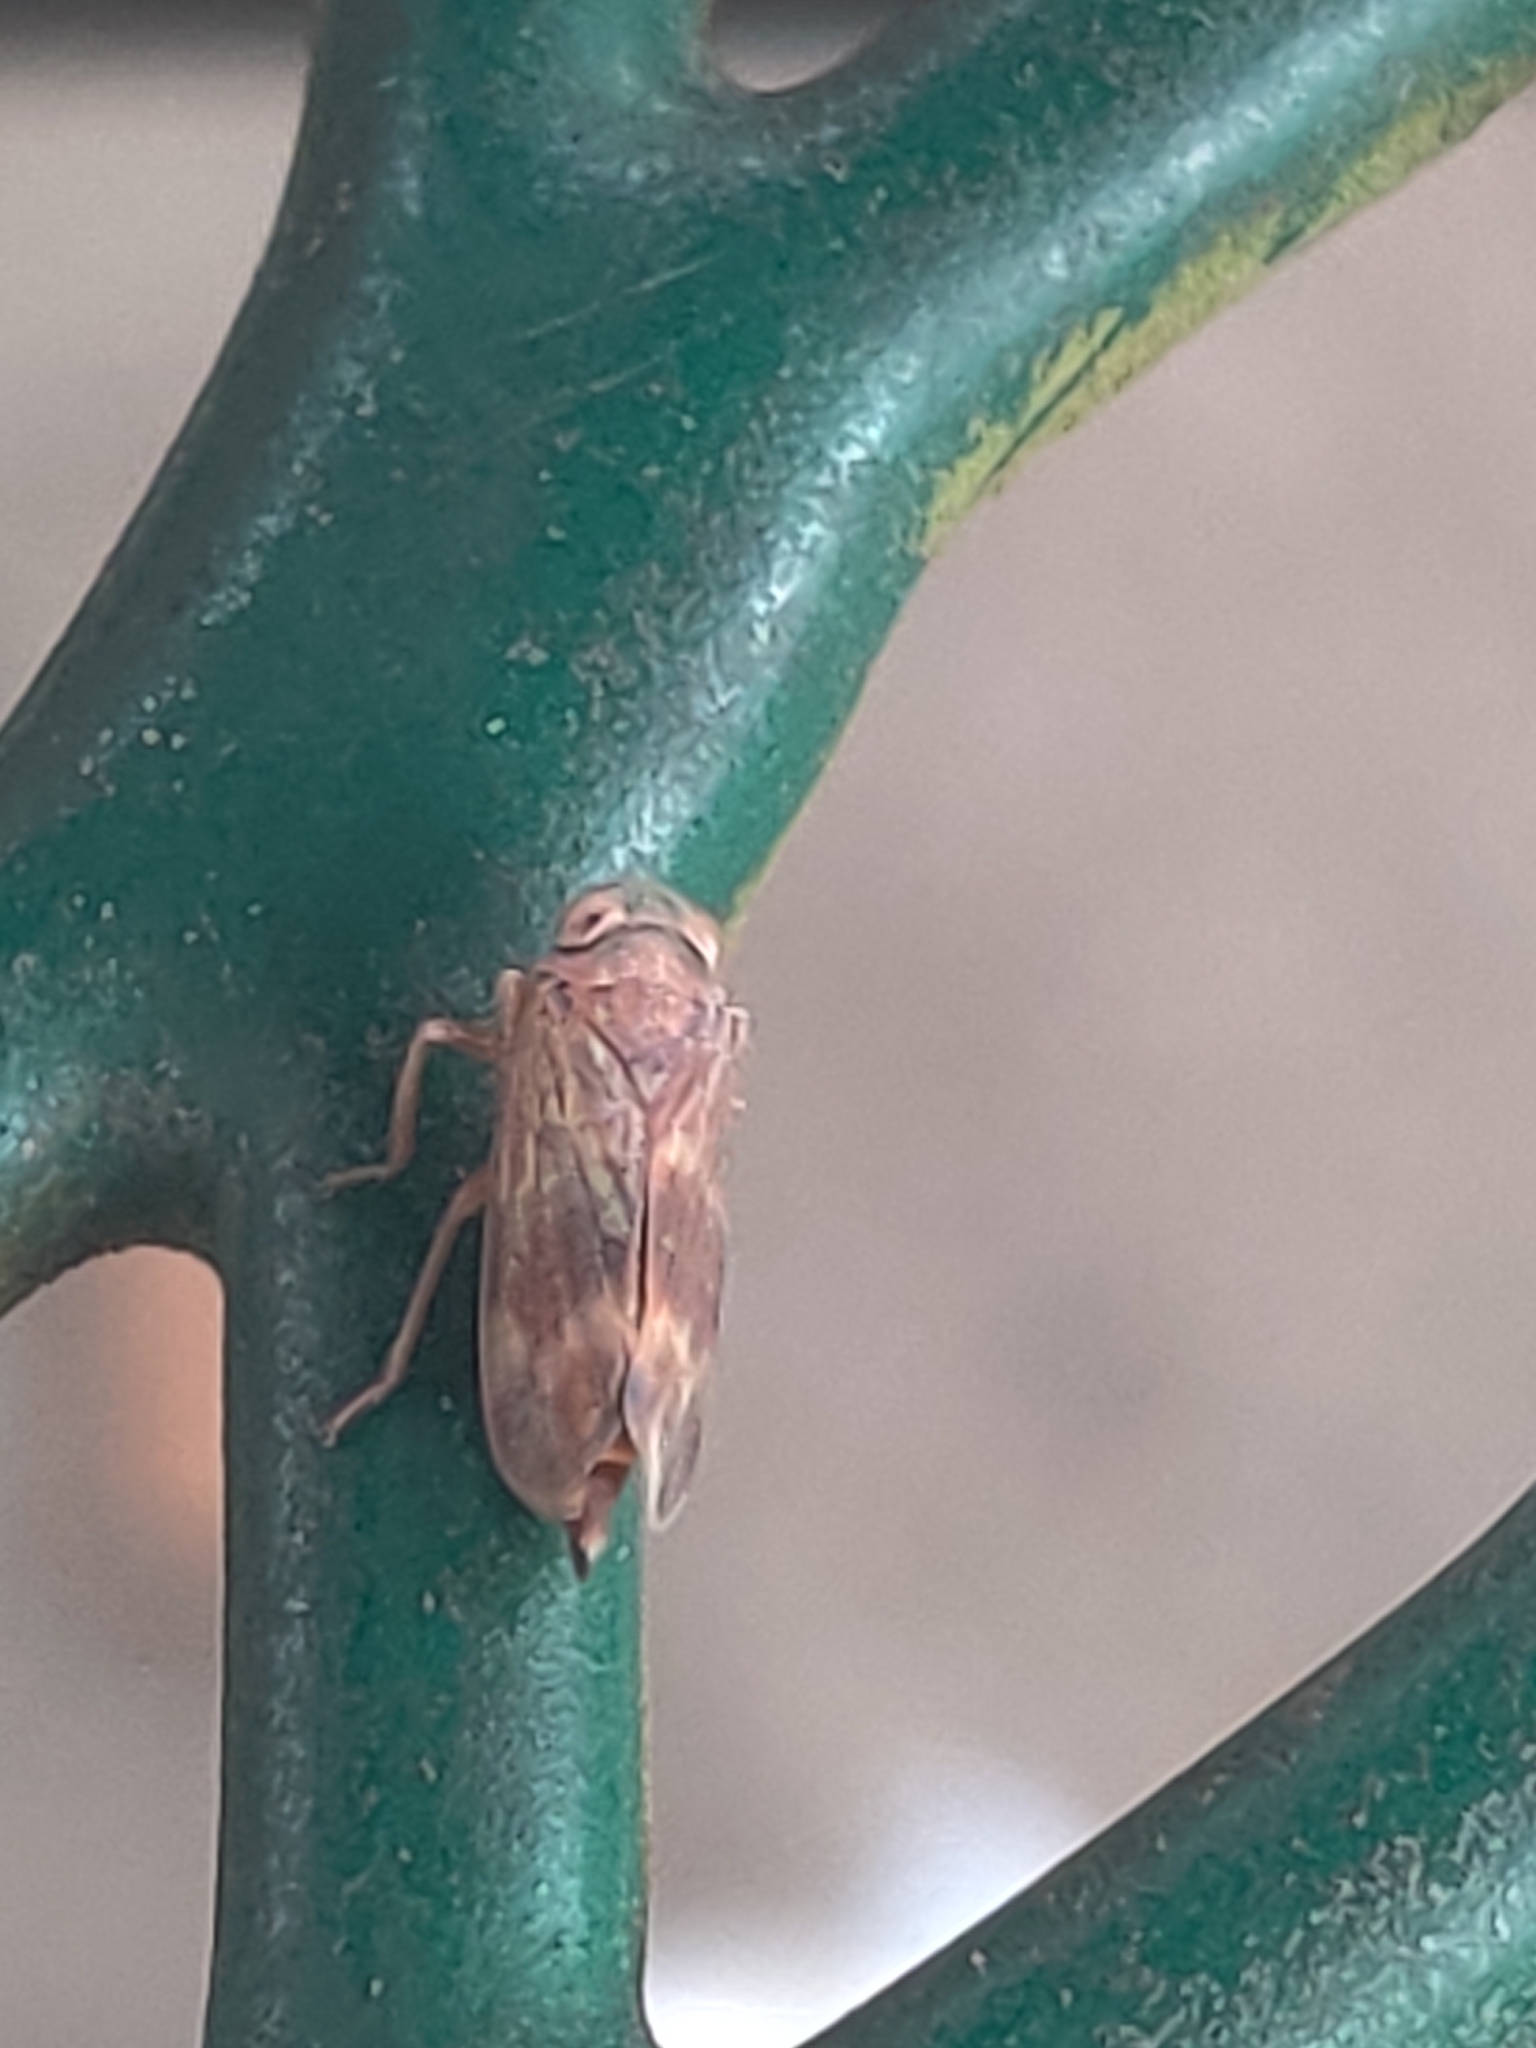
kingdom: Animalia
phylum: Arthropoda
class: Insecta
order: Hemiptera
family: Cicadellidae
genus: Jikradia
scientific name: Jikradia olitoria
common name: Coppery leafhopper
